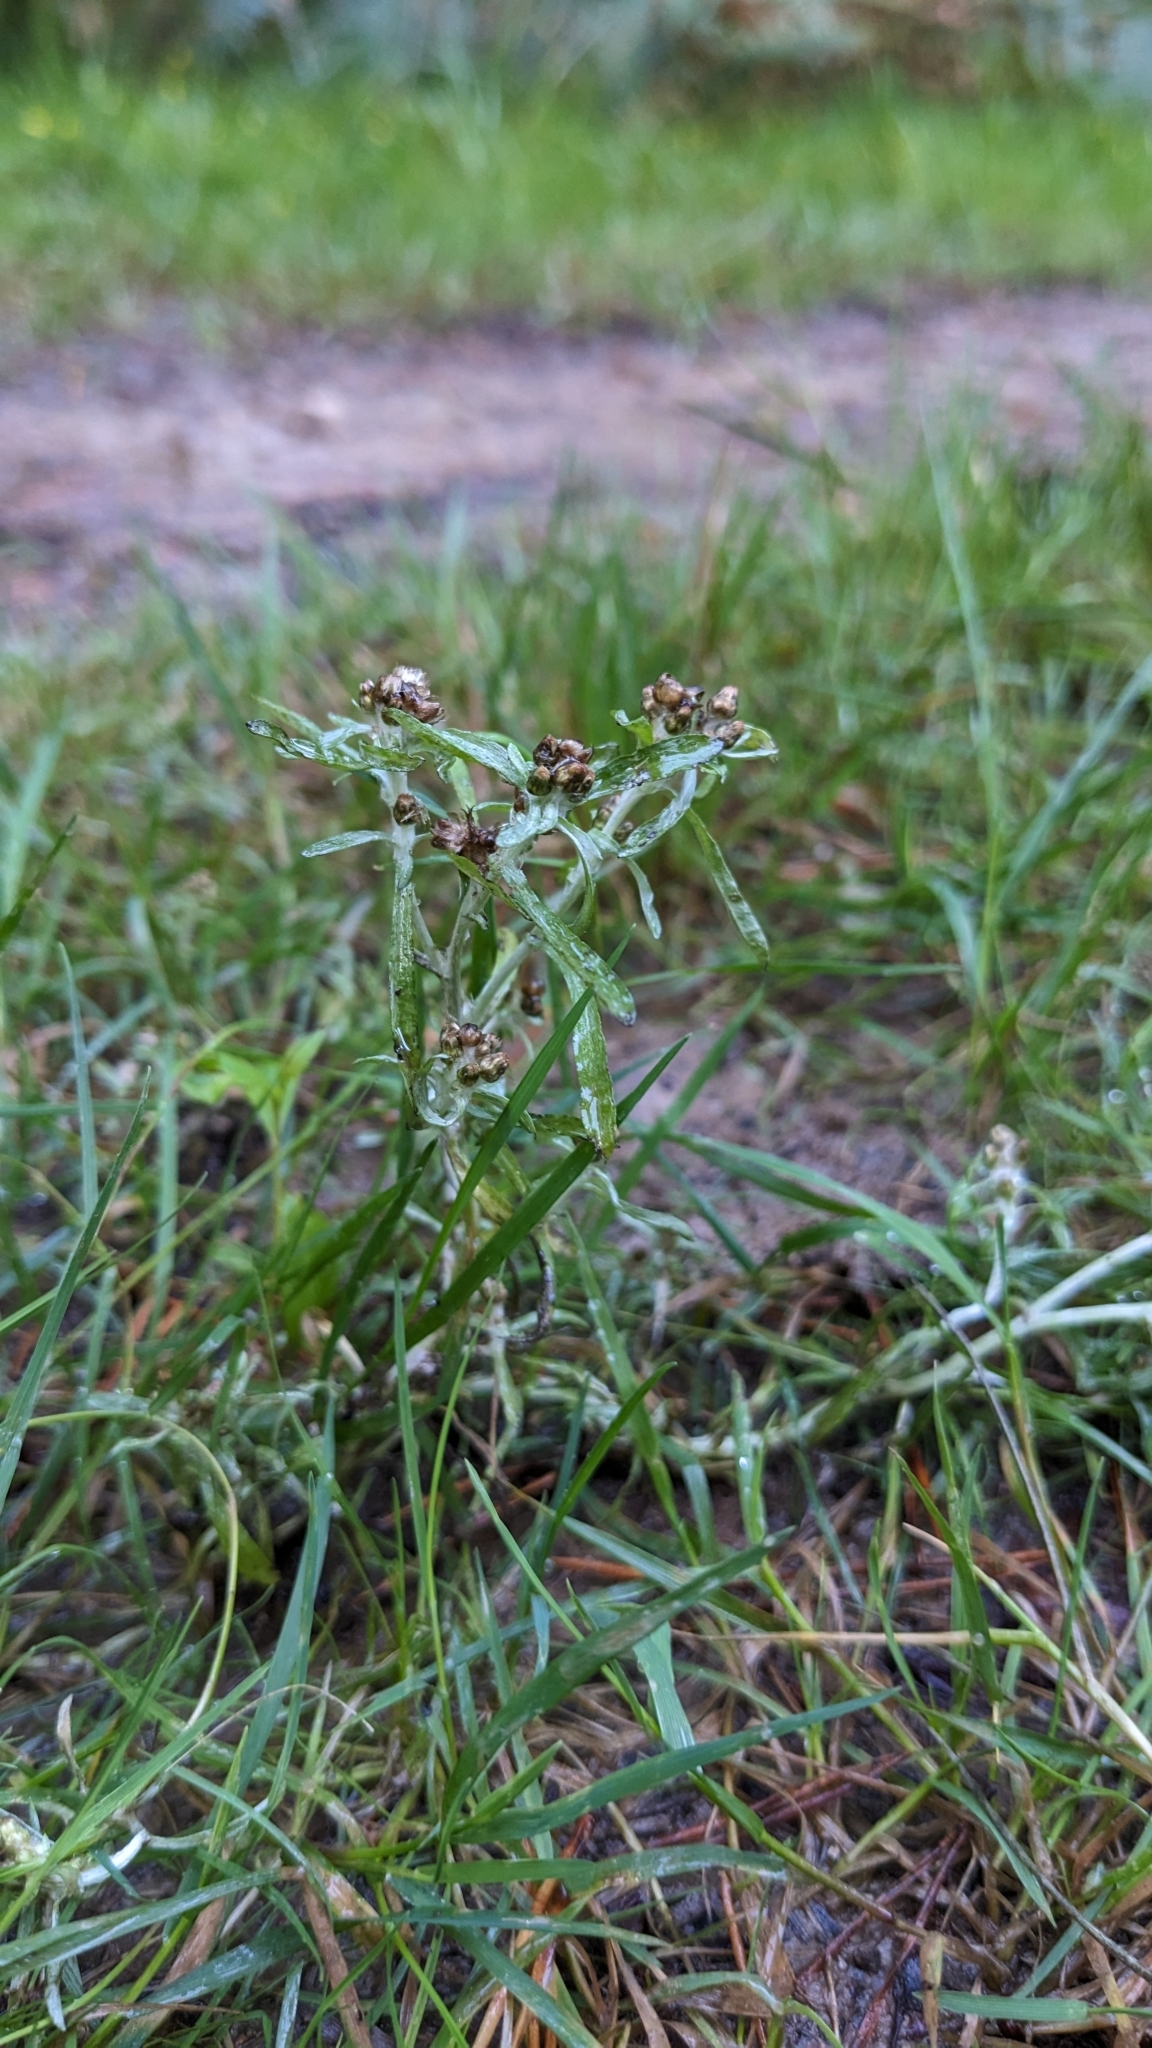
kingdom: Plantae
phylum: Tracheophyta
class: Magnoliopsida
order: Asterales
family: Asteraceae
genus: Gnaphalium
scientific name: Gnaphalium uliginosum
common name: Marsh cudweed
